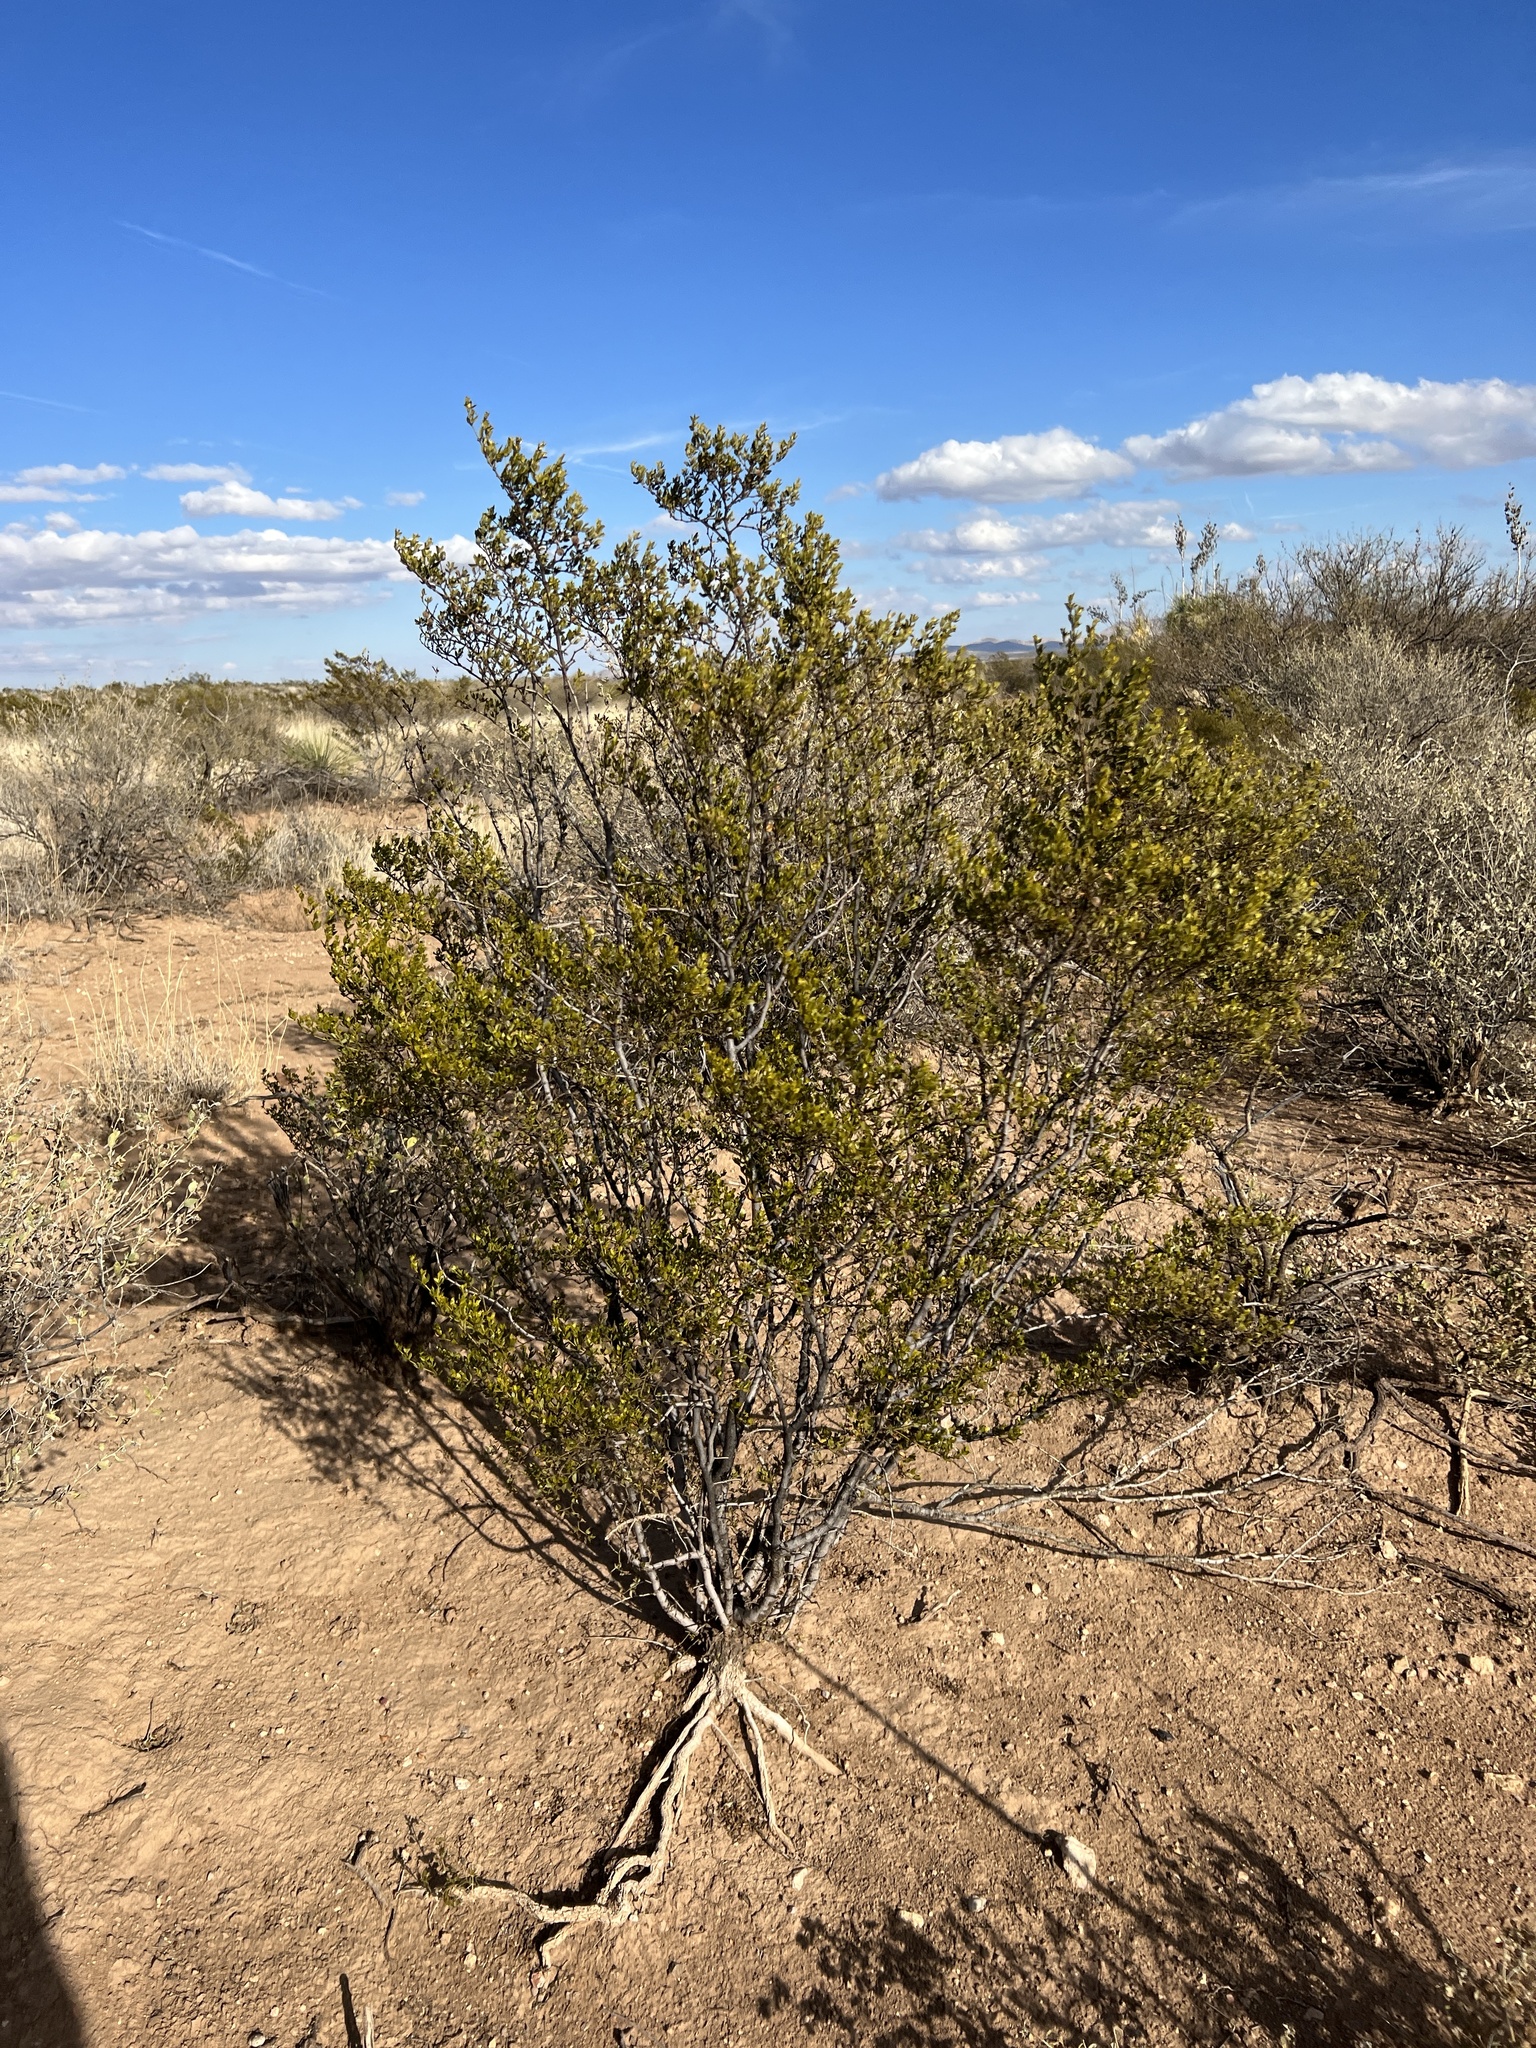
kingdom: Plantae
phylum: Tracheophyta
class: Magnoliopsida
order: Zygophyllales
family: Zygophyllaceae
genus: Larrea
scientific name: Larrea tridentata
